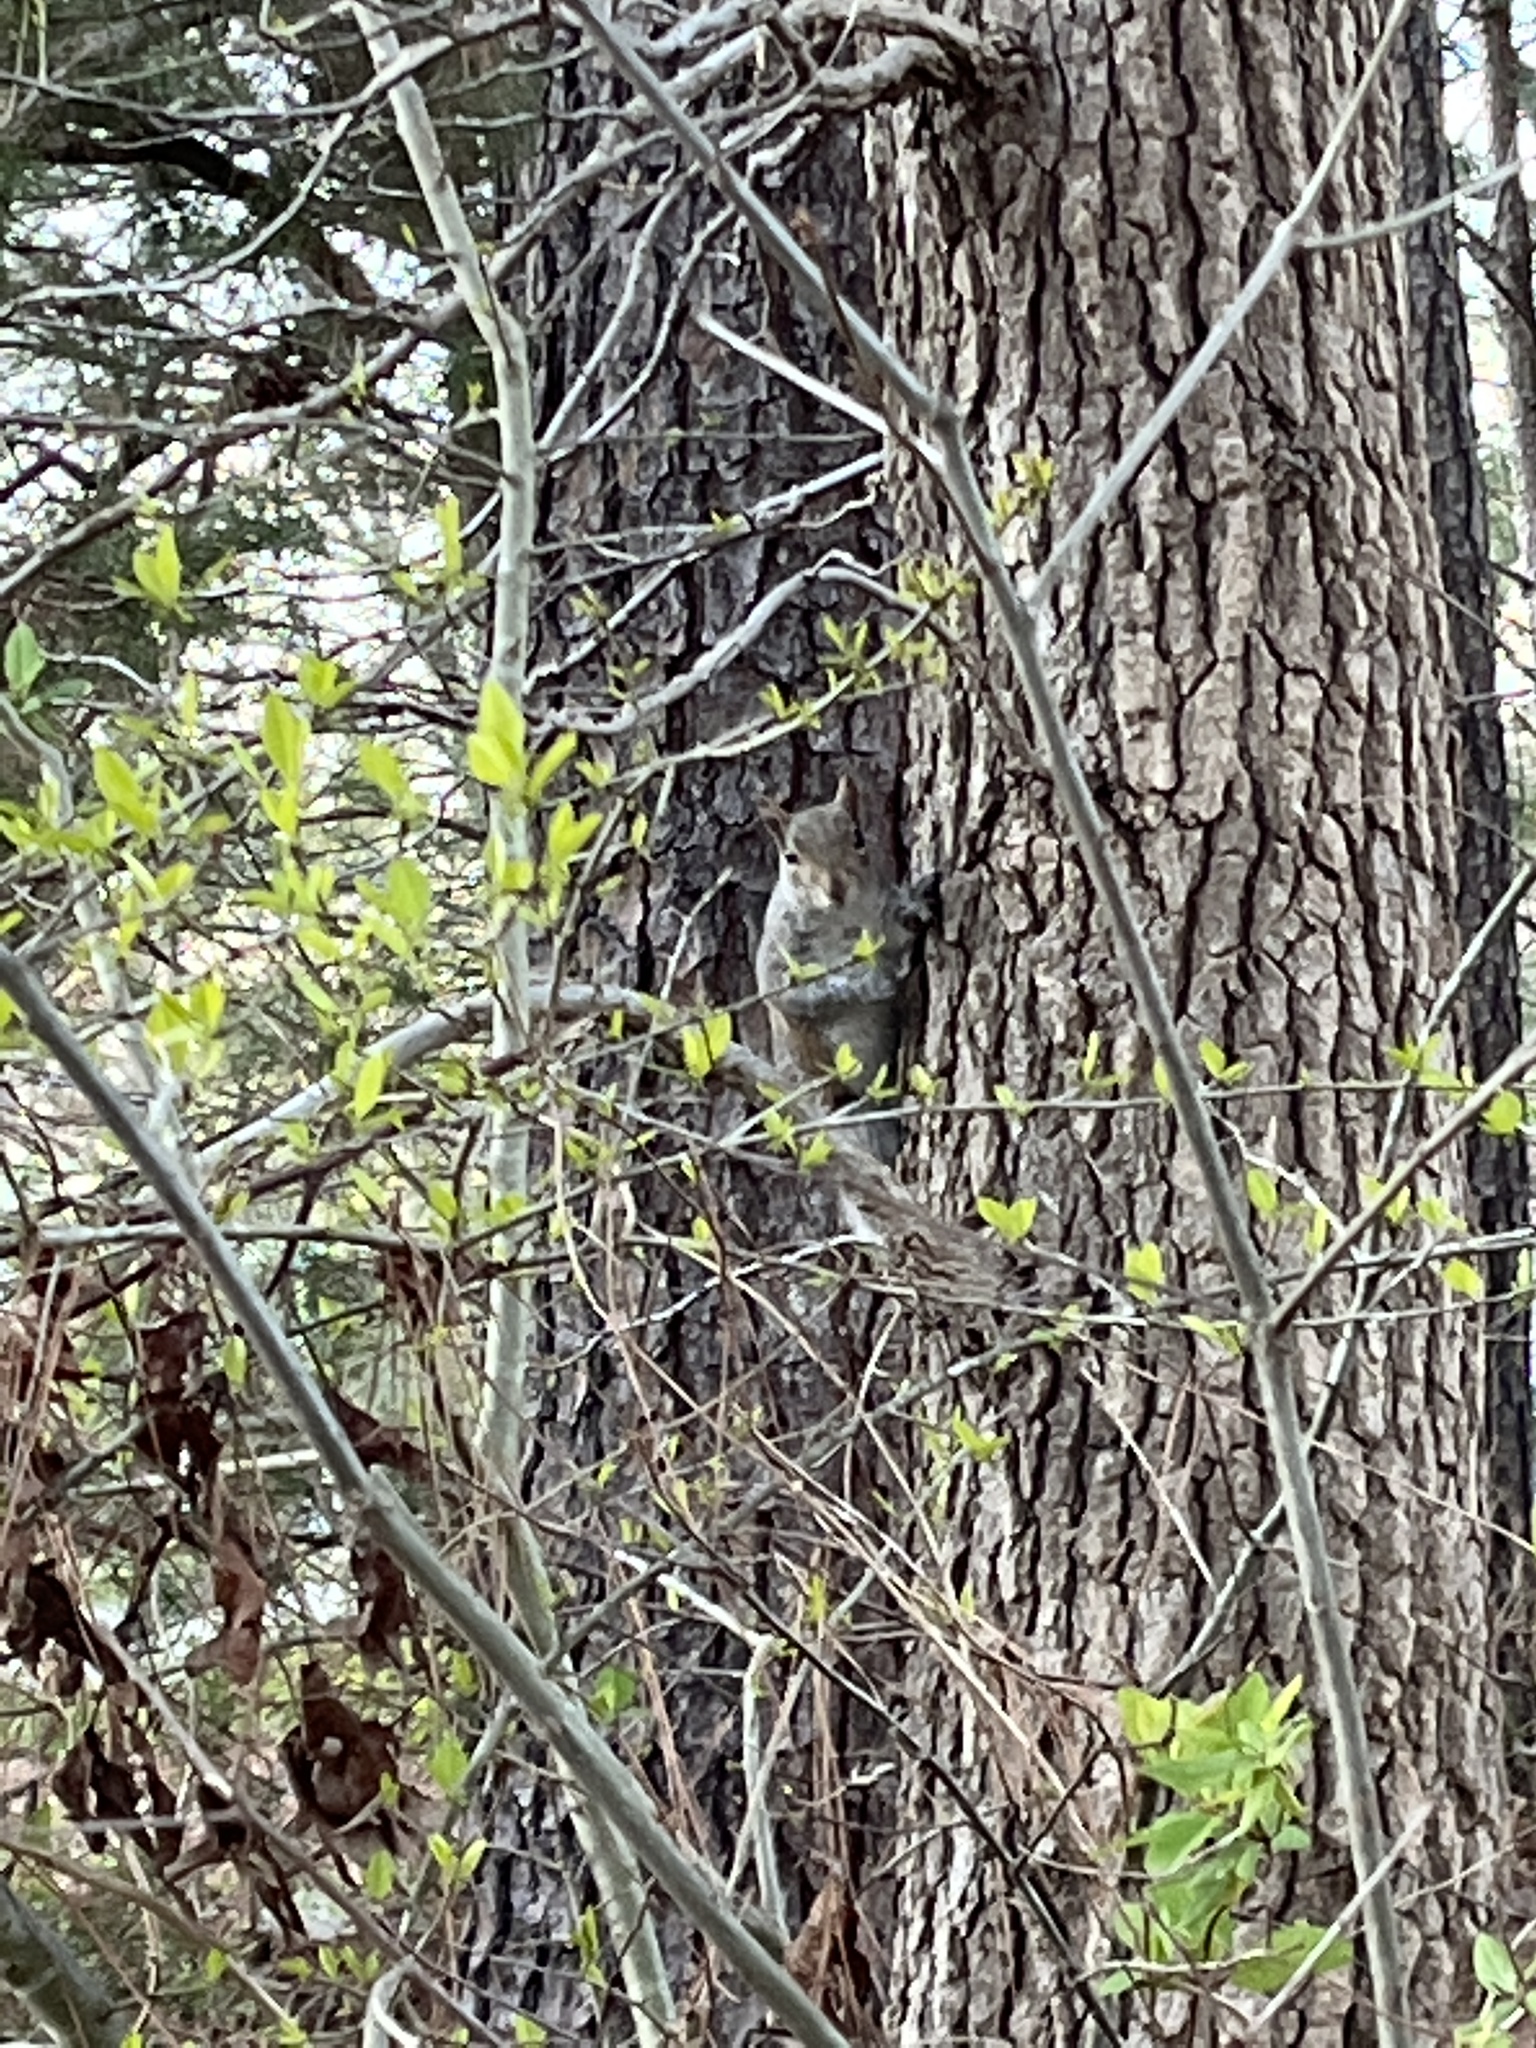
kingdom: Animalia
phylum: Chordata
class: Mammalia
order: Rodentia
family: Sciuridae
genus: Sciurus
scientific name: Sciurus carolinensis
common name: Eastern gray squirrel
